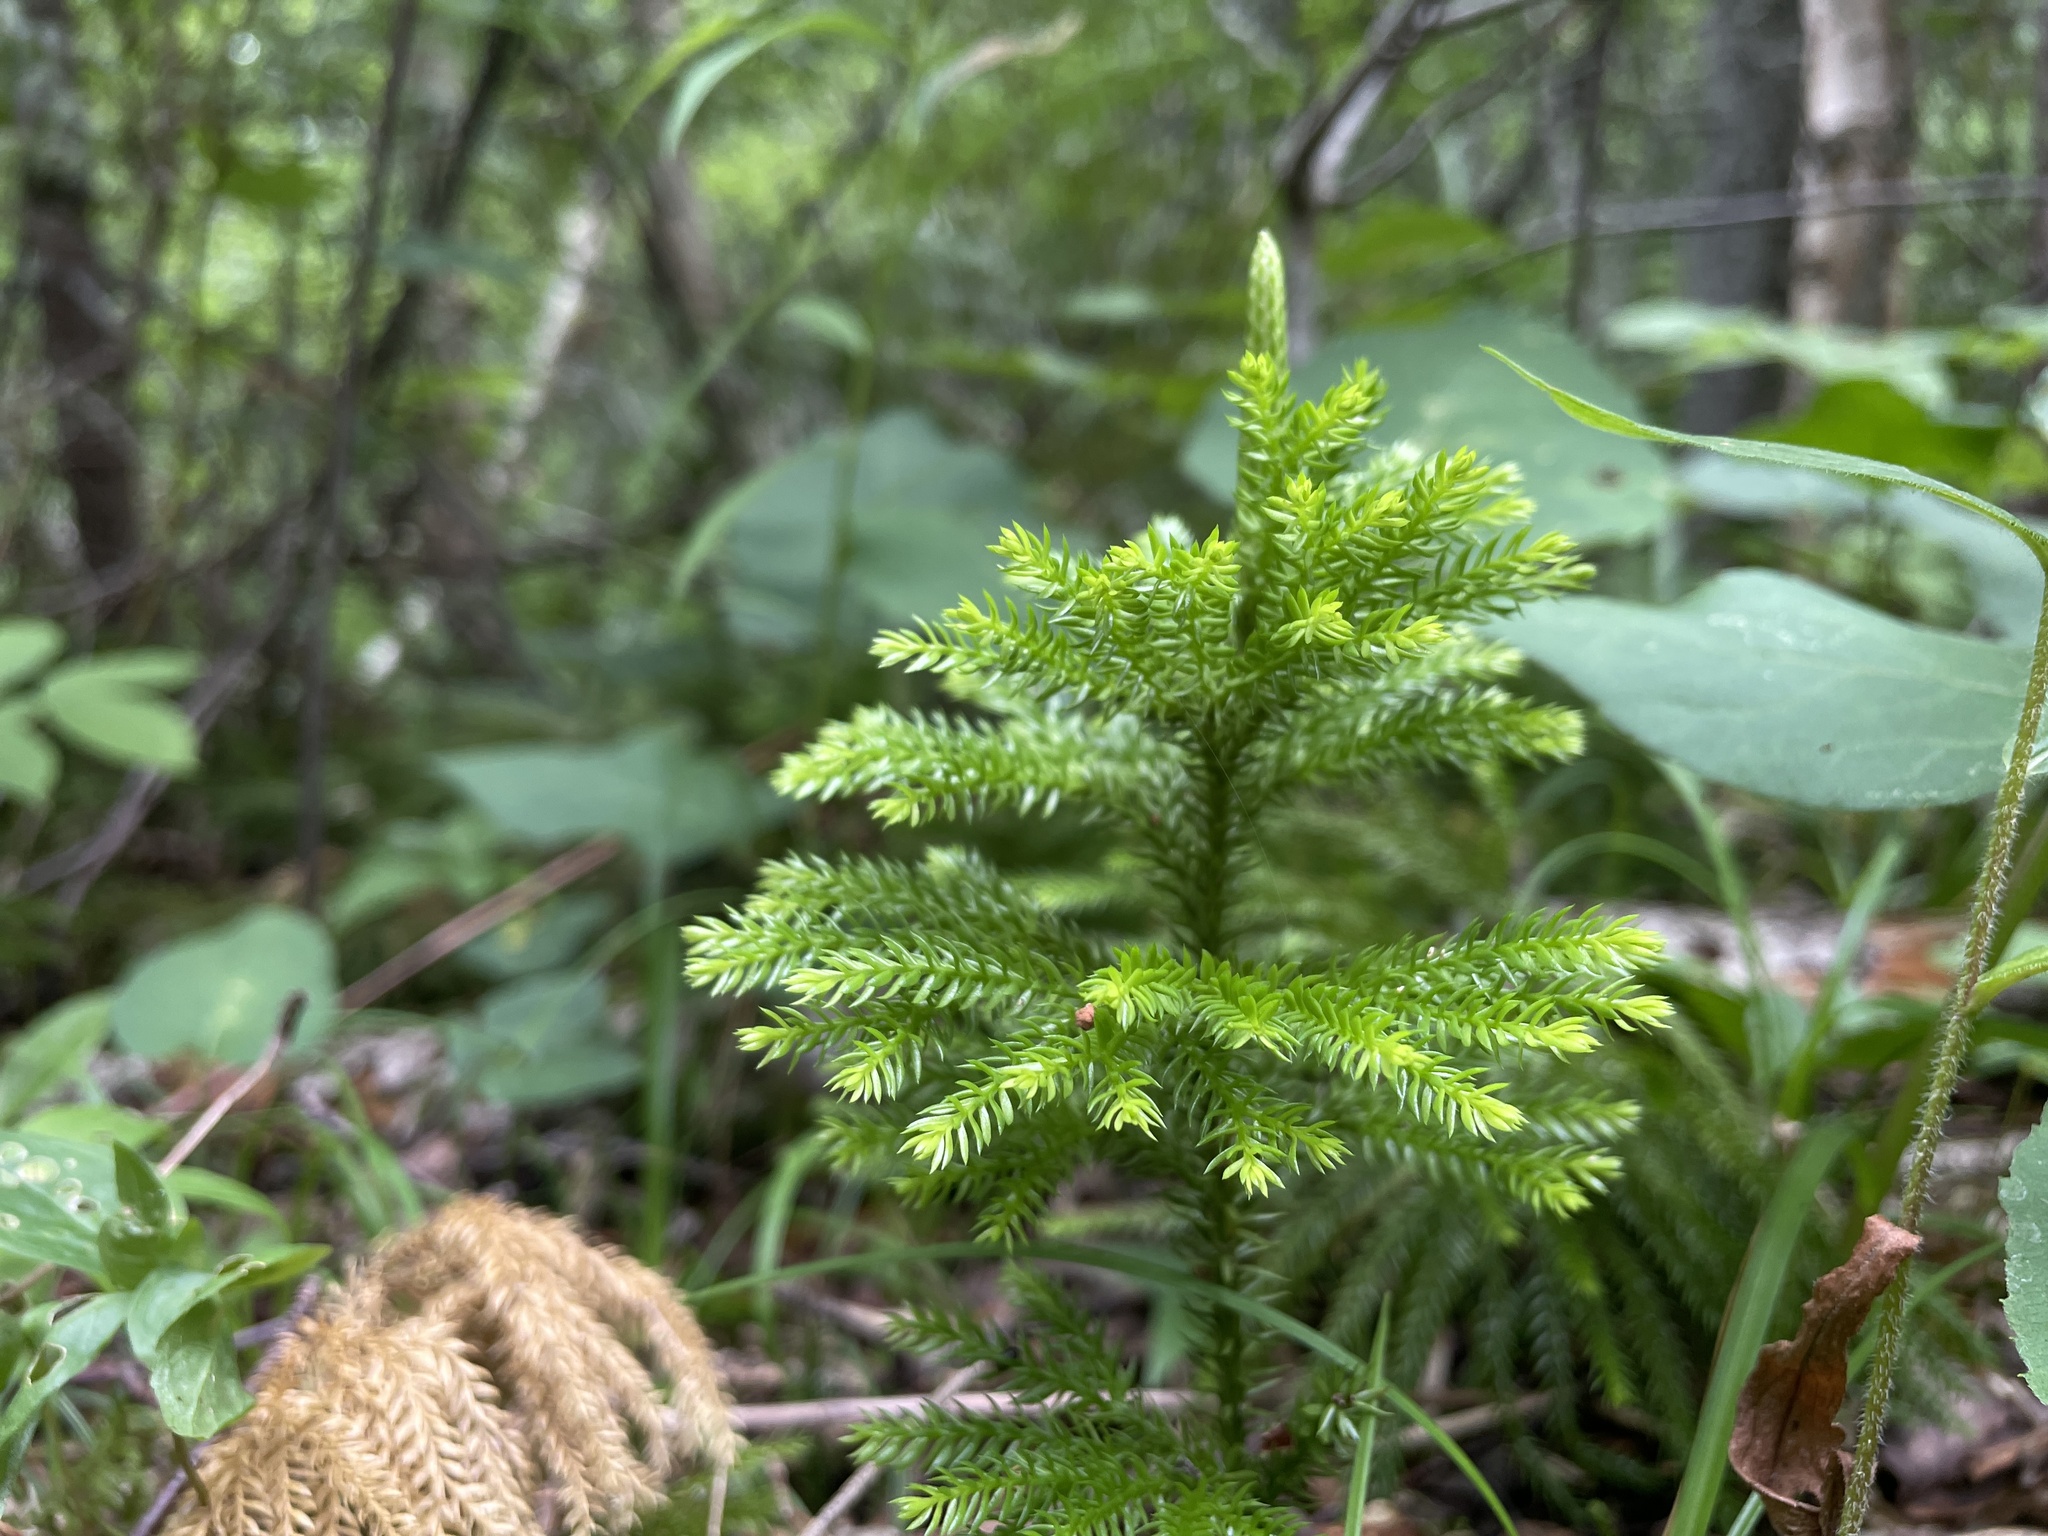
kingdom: Plantae
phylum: Tracheophyta
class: Lycopodiopsida
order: Lycopodiales
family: Lycopodiaceae
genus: Dendrolycopodium
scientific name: Dendrolycopodium dendroideum
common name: Northern tree-clubmoss
